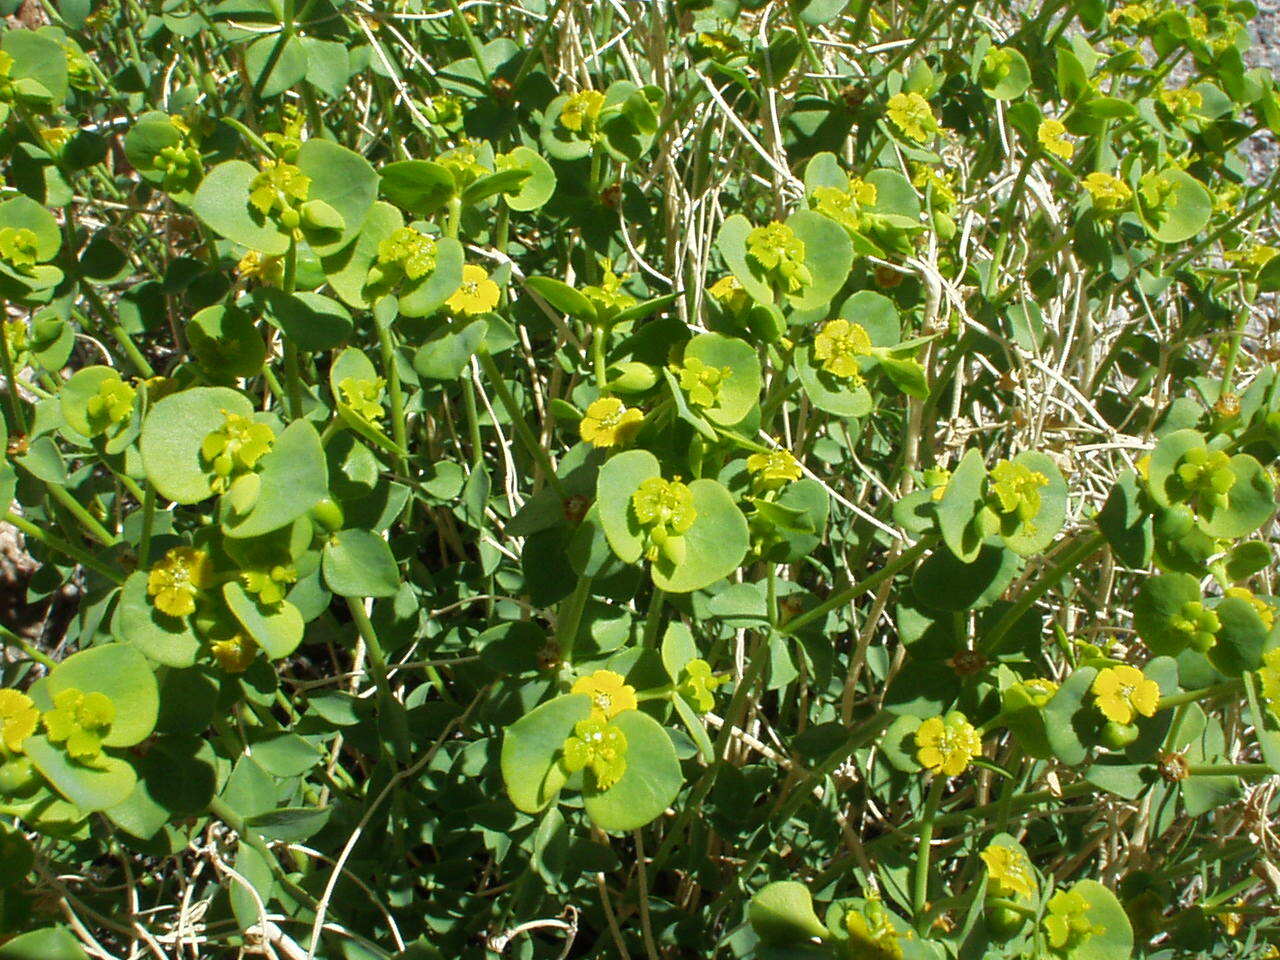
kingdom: Plantae
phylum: Tracheophyta
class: Magnoliopsida
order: Malpighiales
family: Euphorbiaceae
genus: Euphorbia
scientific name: Euphorbia schizoloba
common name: Mojave spurge
